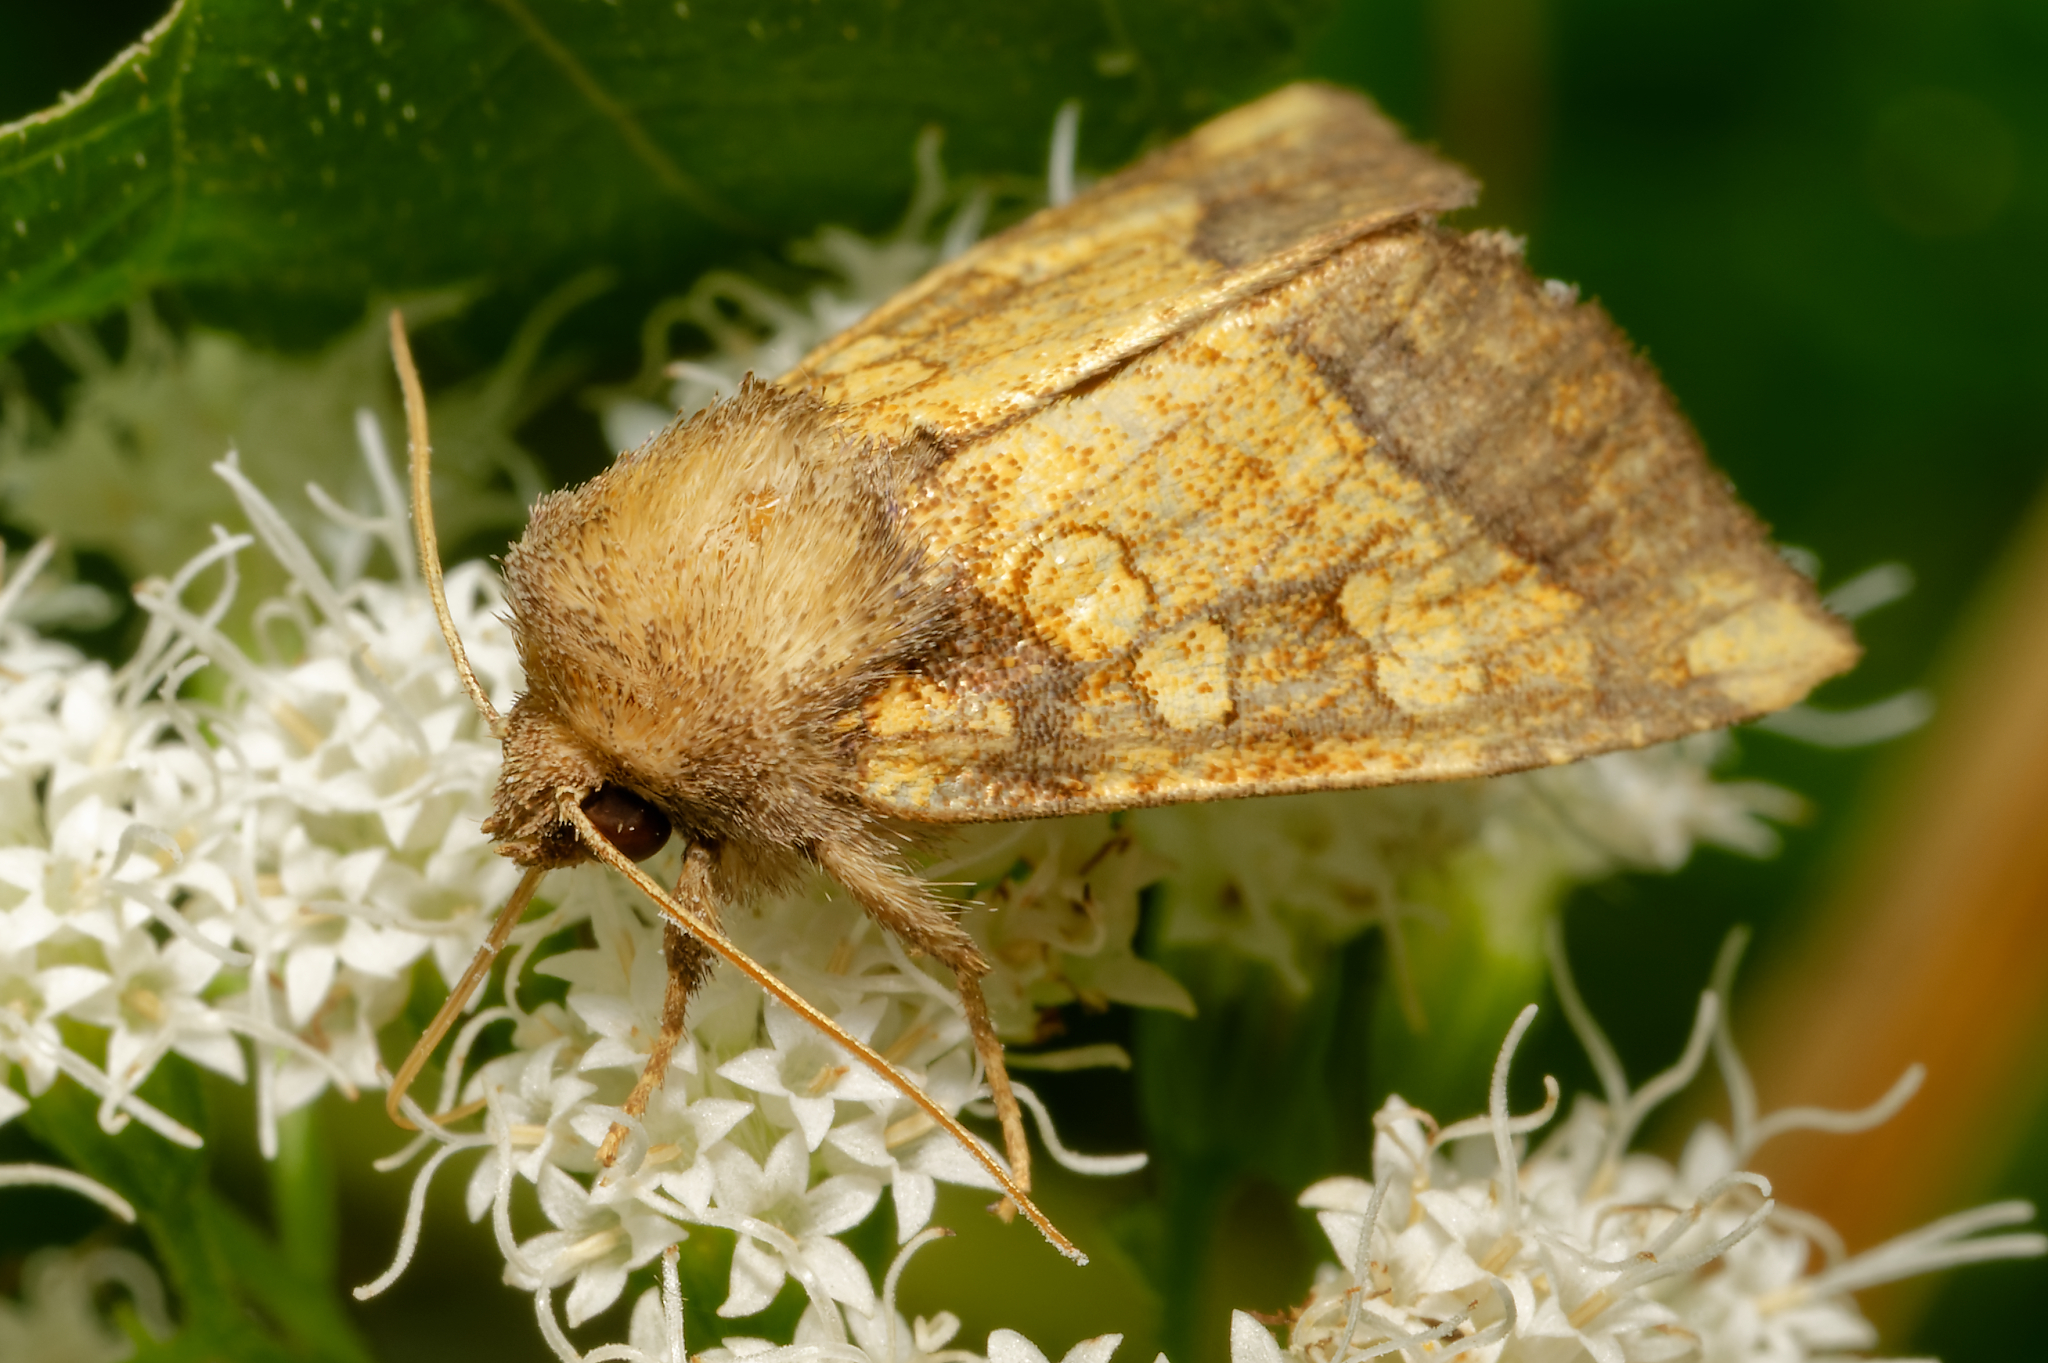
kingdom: Animalia
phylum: Arthropoda
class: Insecta
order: Lepidoptera
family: Noctuidae
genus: Papaipema
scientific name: Papaipema cataphracta
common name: Burdock borer
